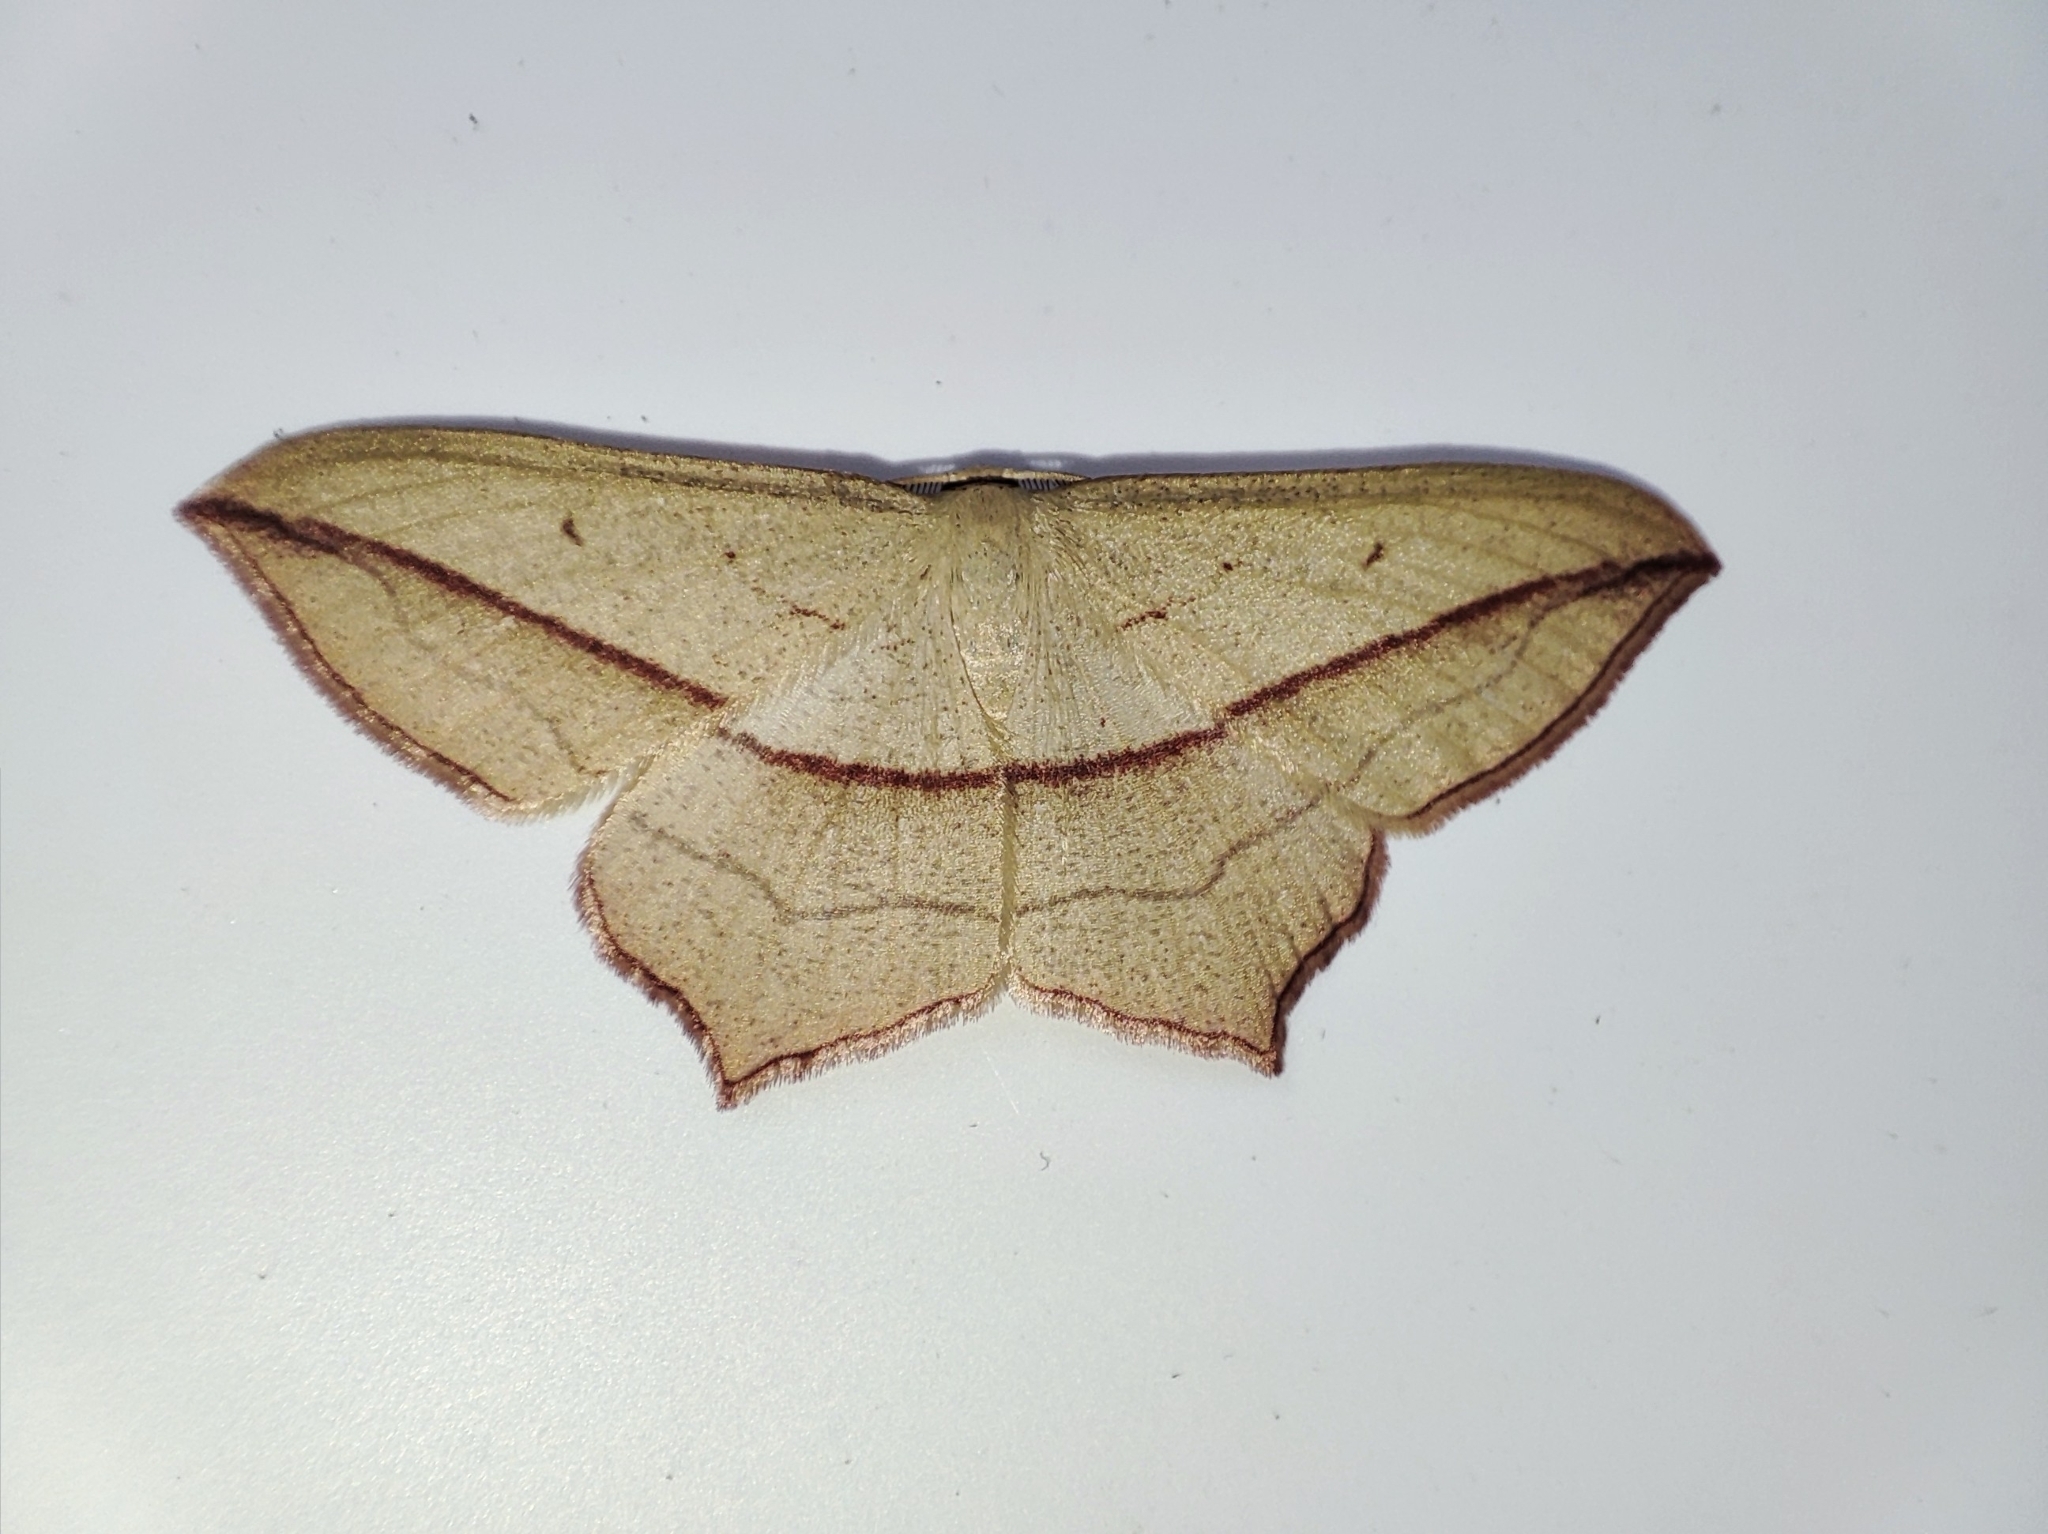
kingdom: Animalia
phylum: Arthropoda
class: Insecta
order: Lepidoptera
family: Geometridae
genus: Timandra
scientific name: Timandra comae
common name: Blood-vein
